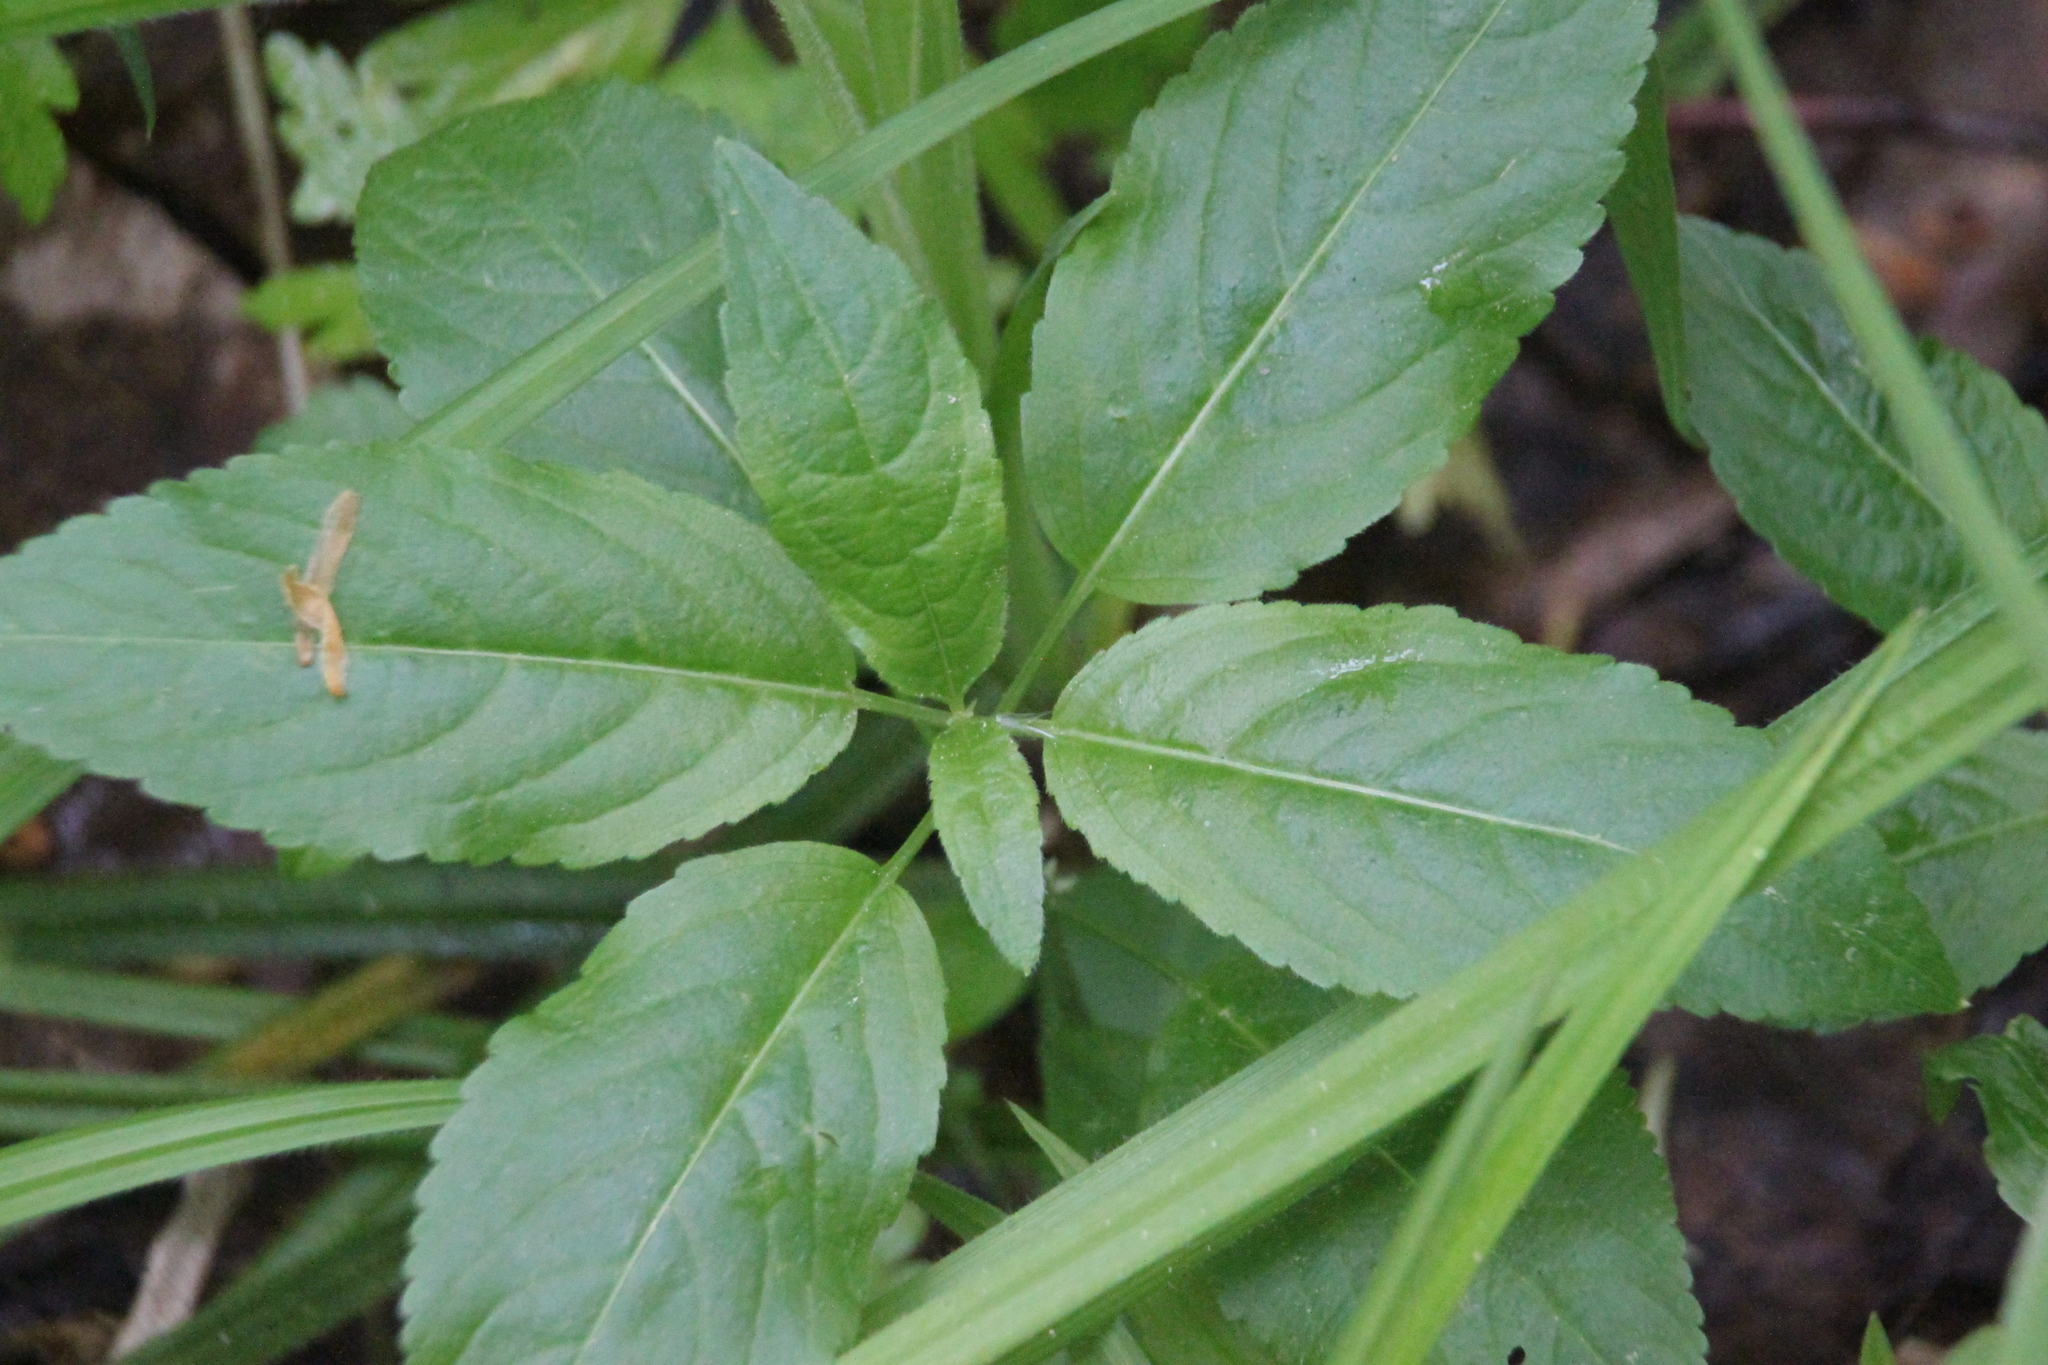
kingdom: Plantae
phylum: Tracheophyta
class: Magnoliopsida
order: Malpighiales
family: Euphorbiaceae
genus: Mercurialis
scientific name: Mercurialis perennis
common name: Dog mercury
